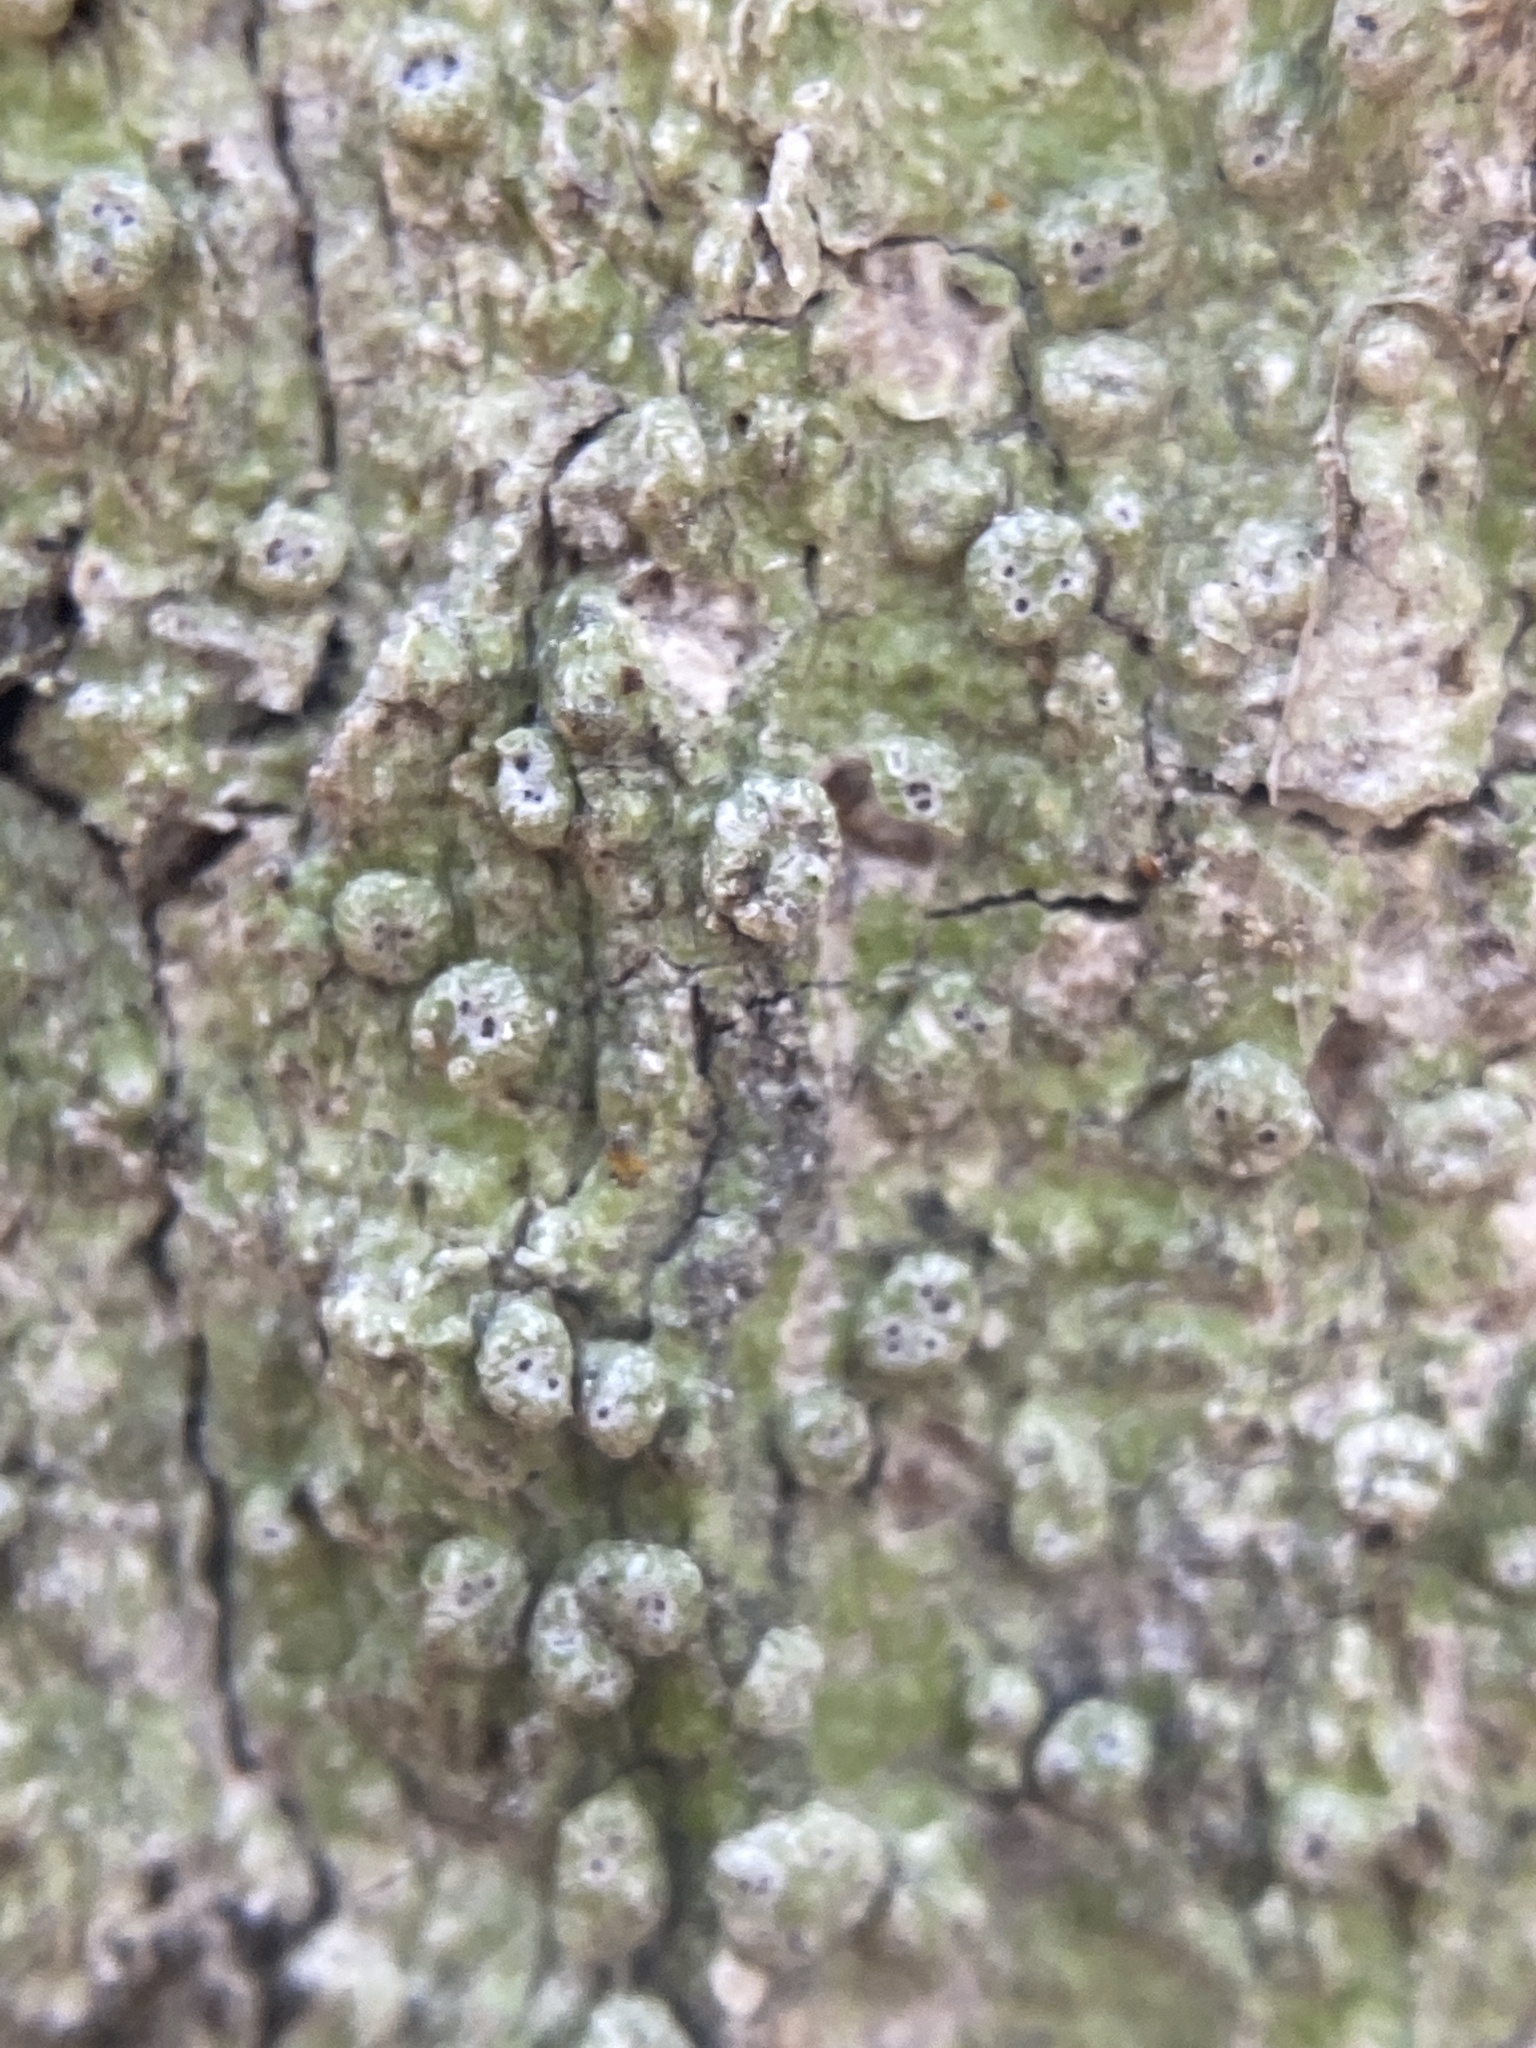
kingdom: Fungi
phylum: Ascomycota
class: Lecanoromycetes
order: Pertusariales
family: Pertusariaceae
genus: Pertusaria
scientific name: Pertusaria sinusmexicani
